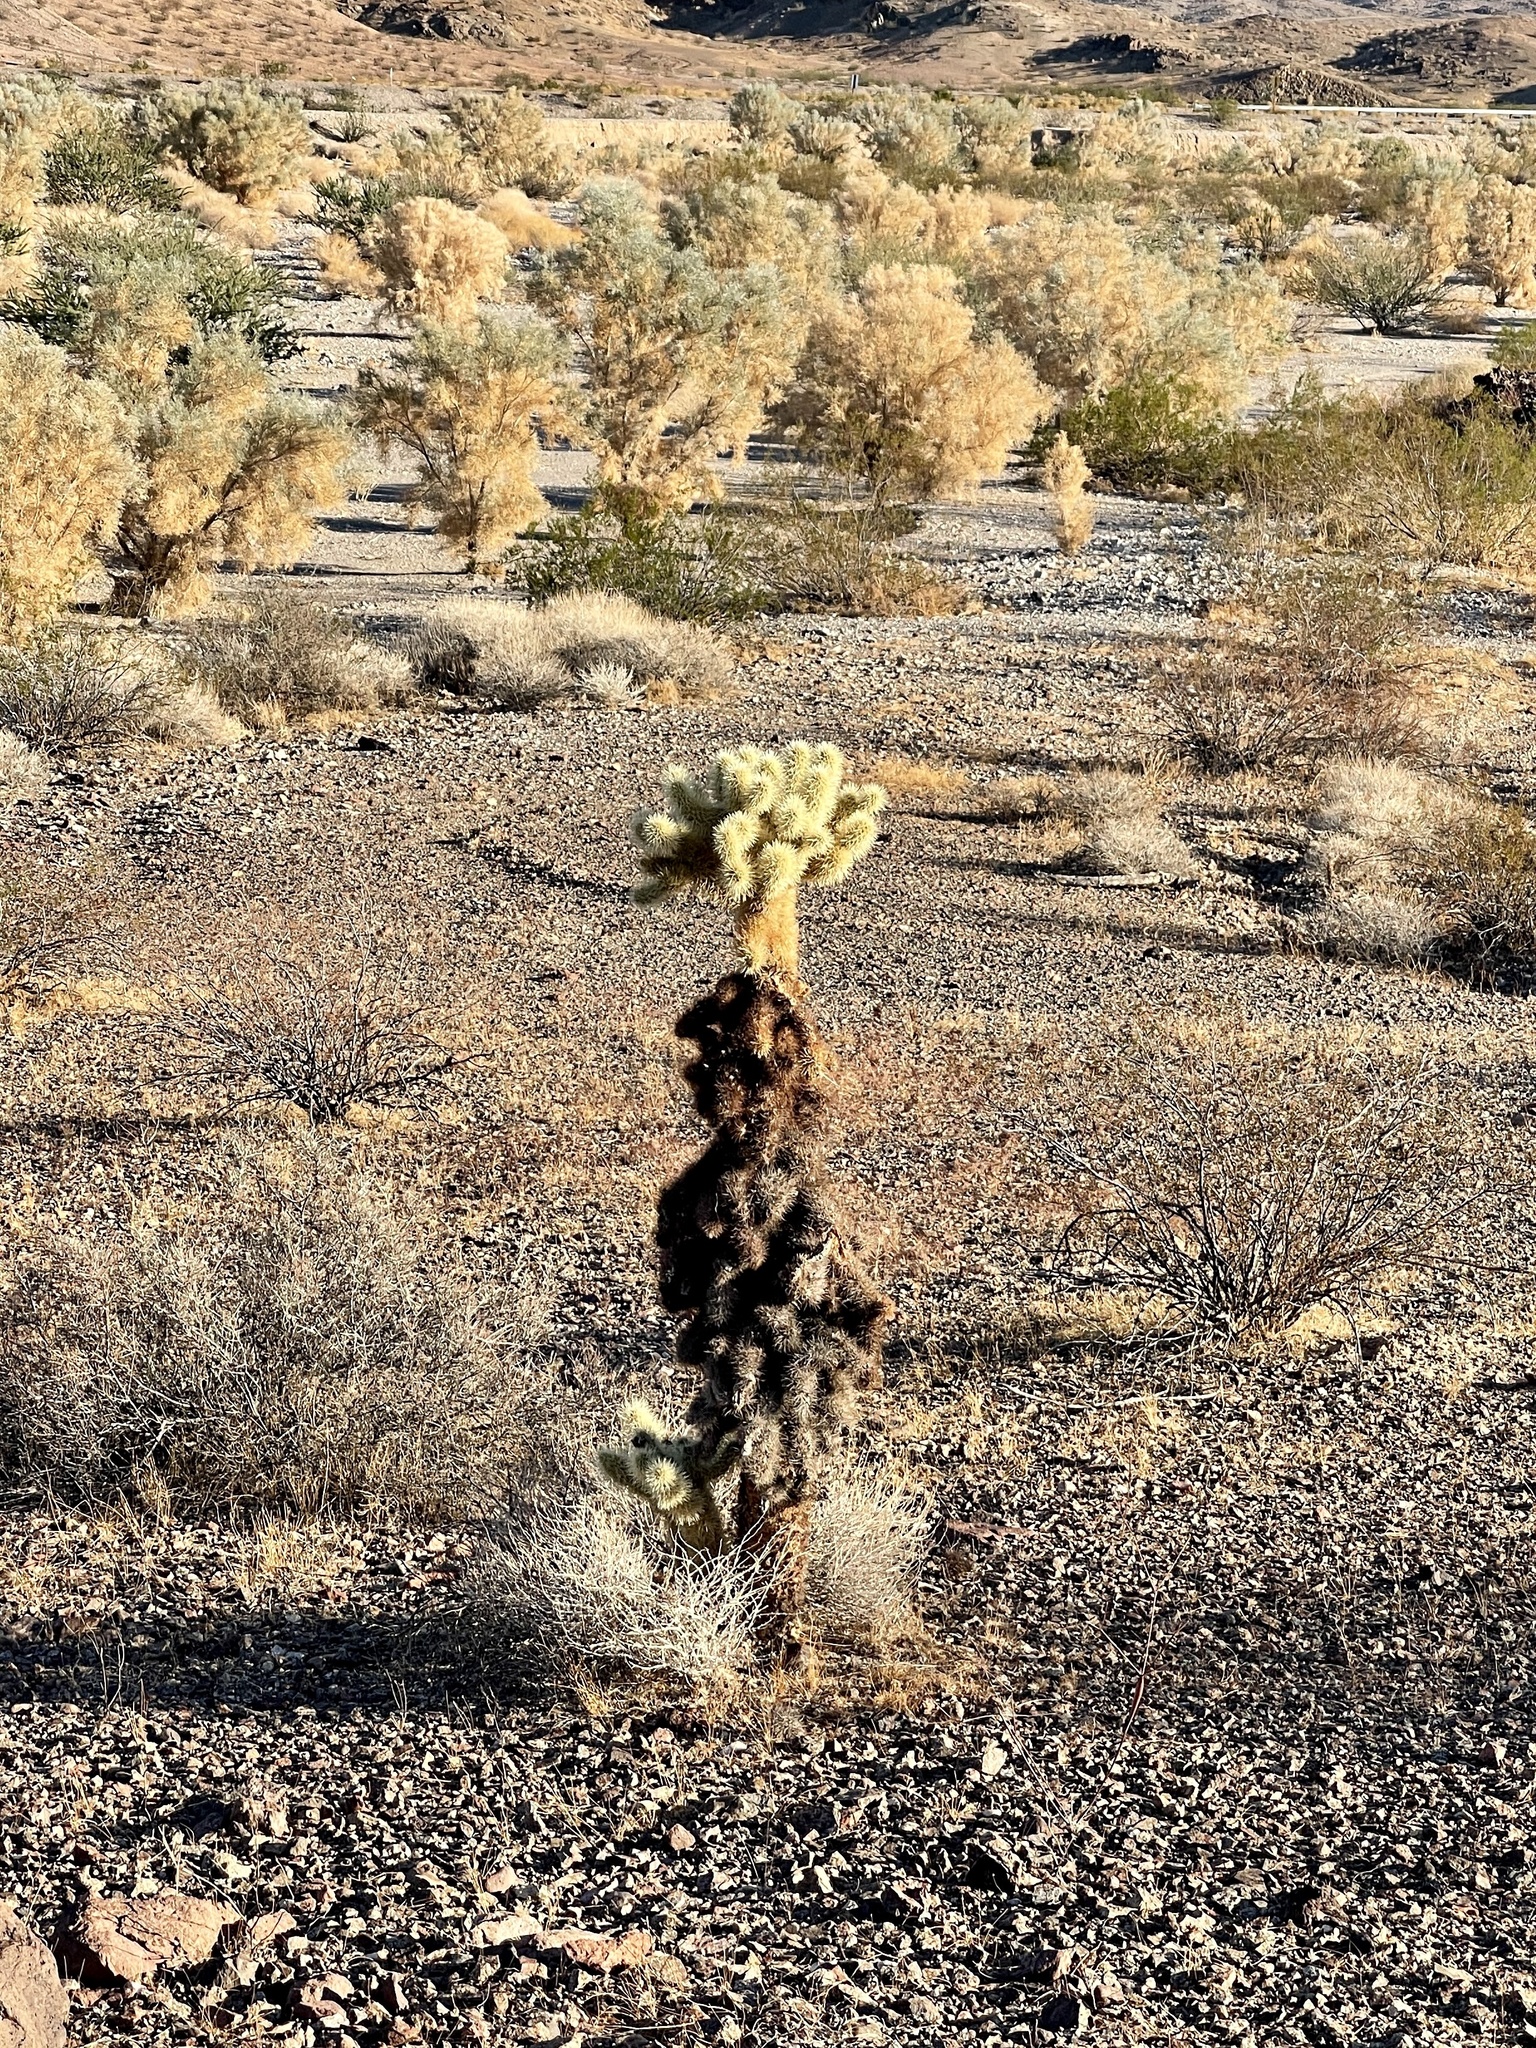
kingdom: Plantae
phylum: Tracheophyta
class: Magnoliopsida
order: Caryophyllales
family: Cactaceae
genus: Cylindropuntia
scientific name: Cylindropuntia fosbergii
